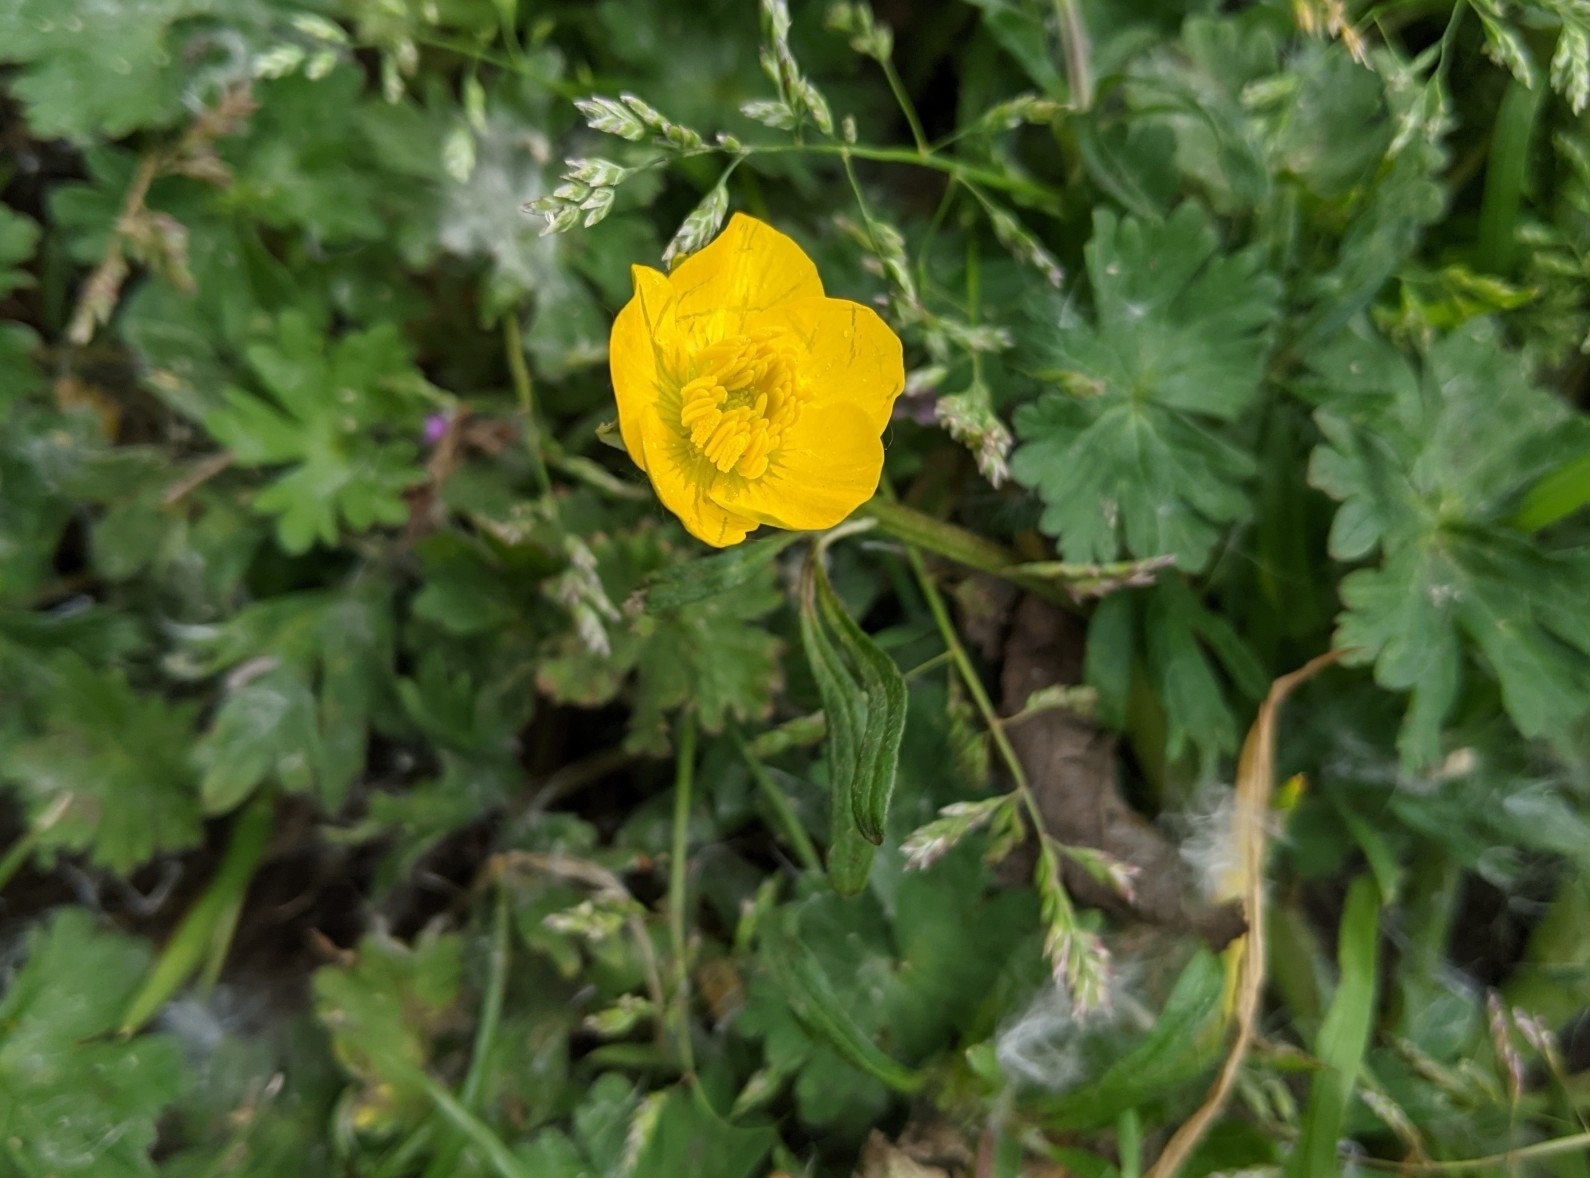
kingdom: Plantae
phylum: Tracheophyta
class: Magnoliopsida
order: Ranunculales
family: Ranunculaceae
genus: Ranunculus
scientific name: Ranunculus bulbosus
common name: Bulbous buttercup
